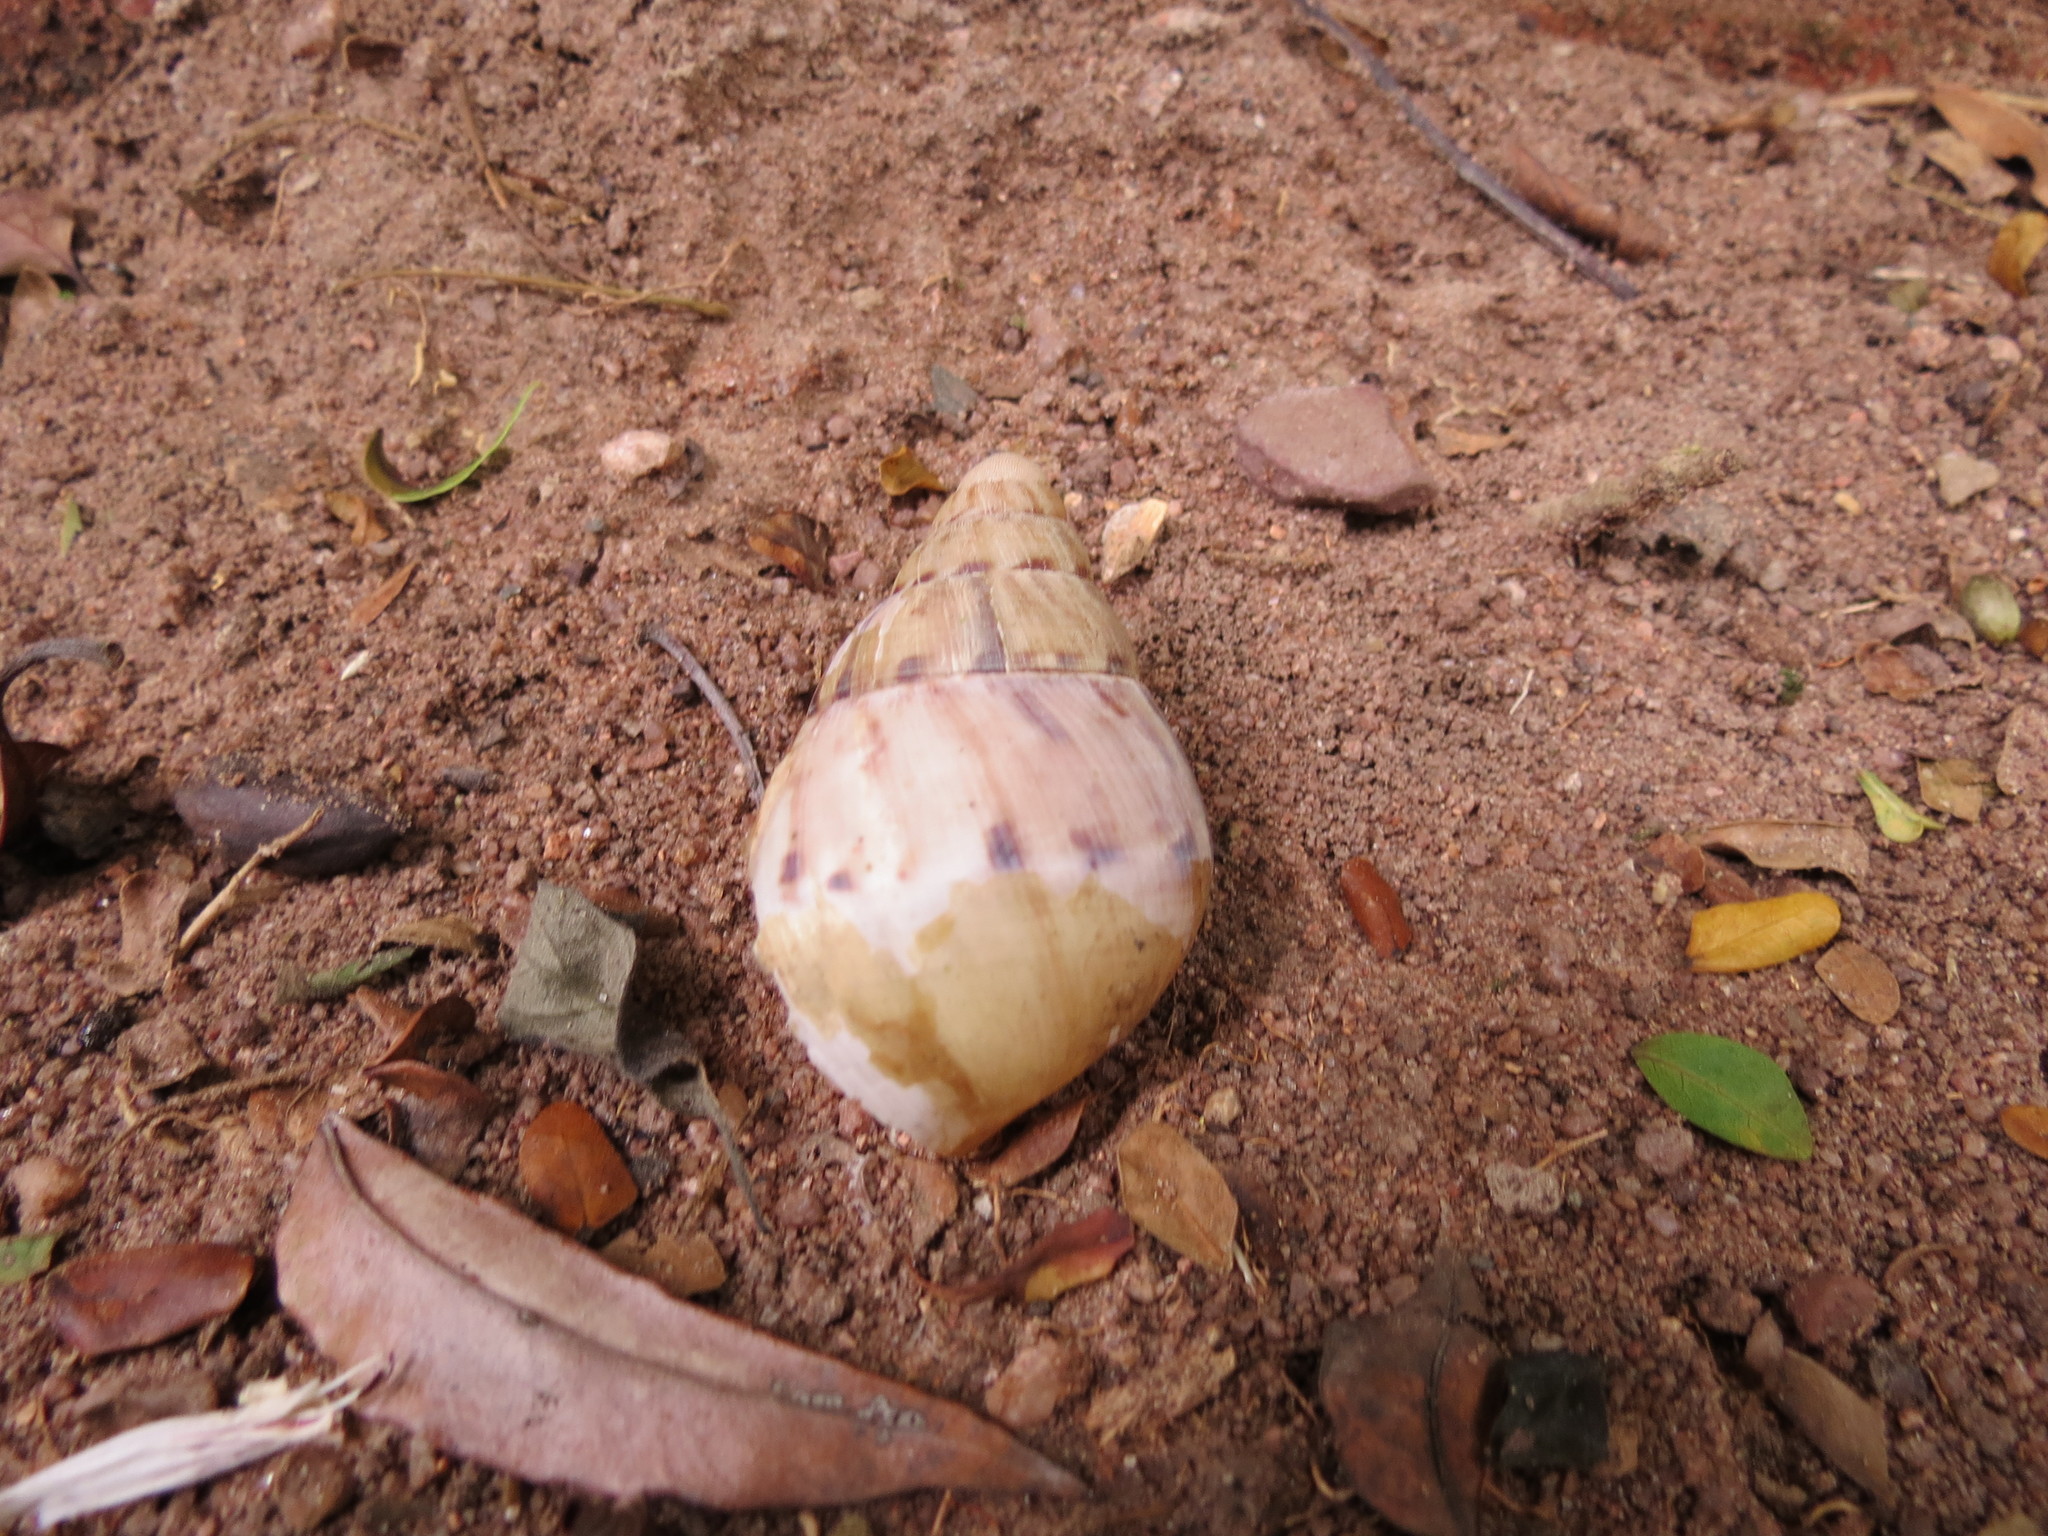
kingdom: Animalia
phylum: Mollusca
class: Gastropoda
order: Stylommatophora
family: Achatinidae
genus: Metachatina
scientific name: Metachatina kraussi
